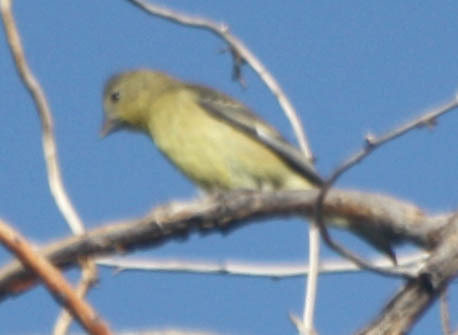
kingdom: Animalia
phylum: Chordata
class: Aves
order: Passeriformes
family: Fringillidae
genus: Spinus
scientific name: Spinus psaltria
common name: Lesser goldfinch
